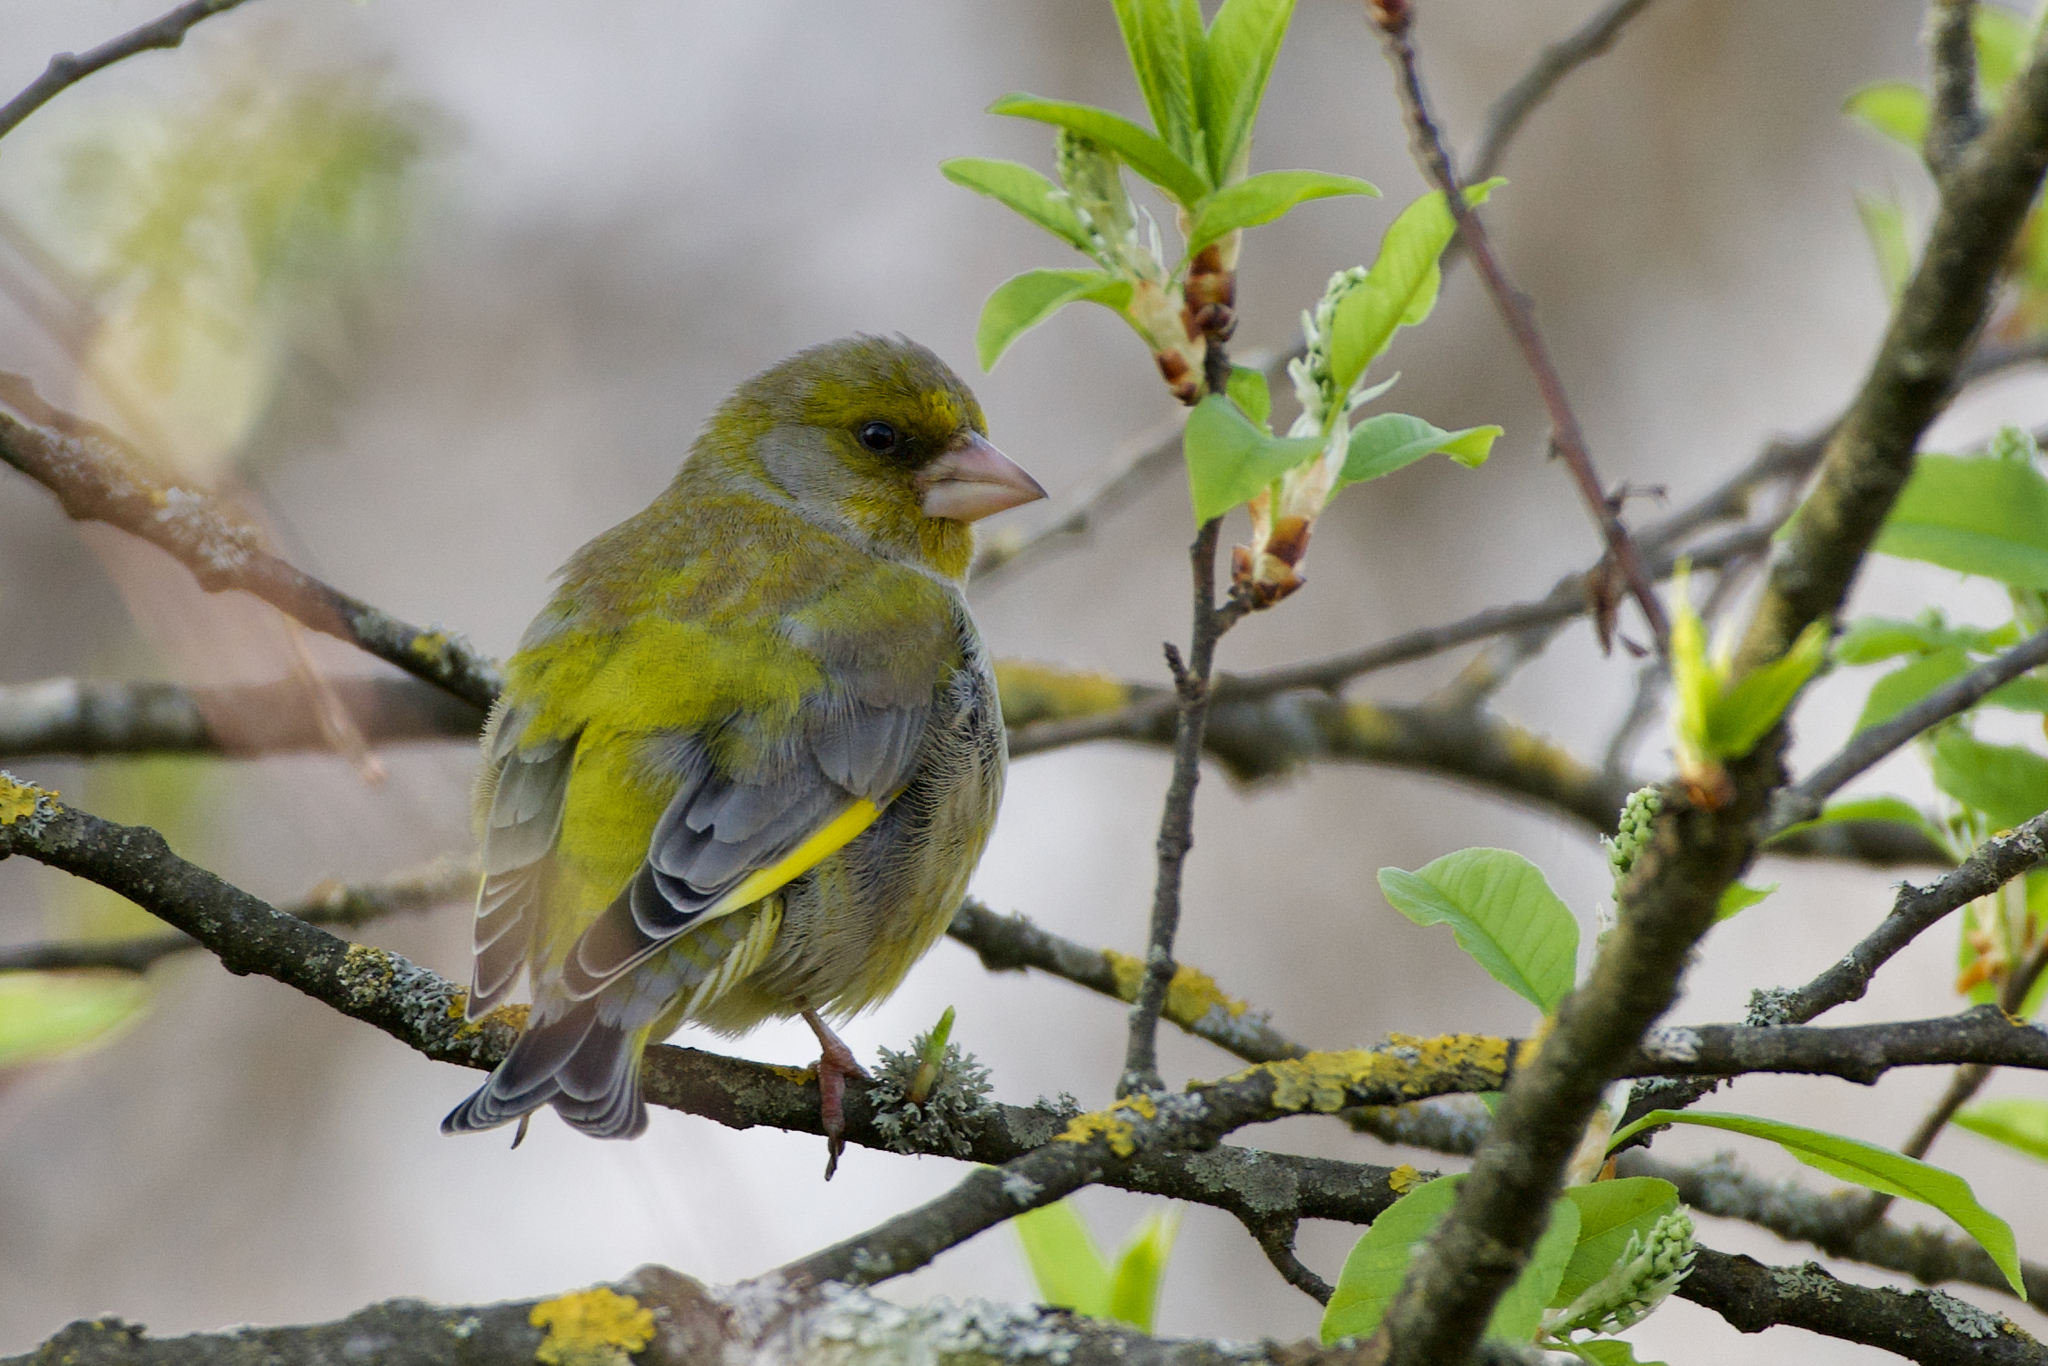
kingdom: Plantae
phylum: Tracheophyta
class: Liliopsida
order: Poales
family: Poaceae
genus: Chloris
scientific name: Chloris chloris
